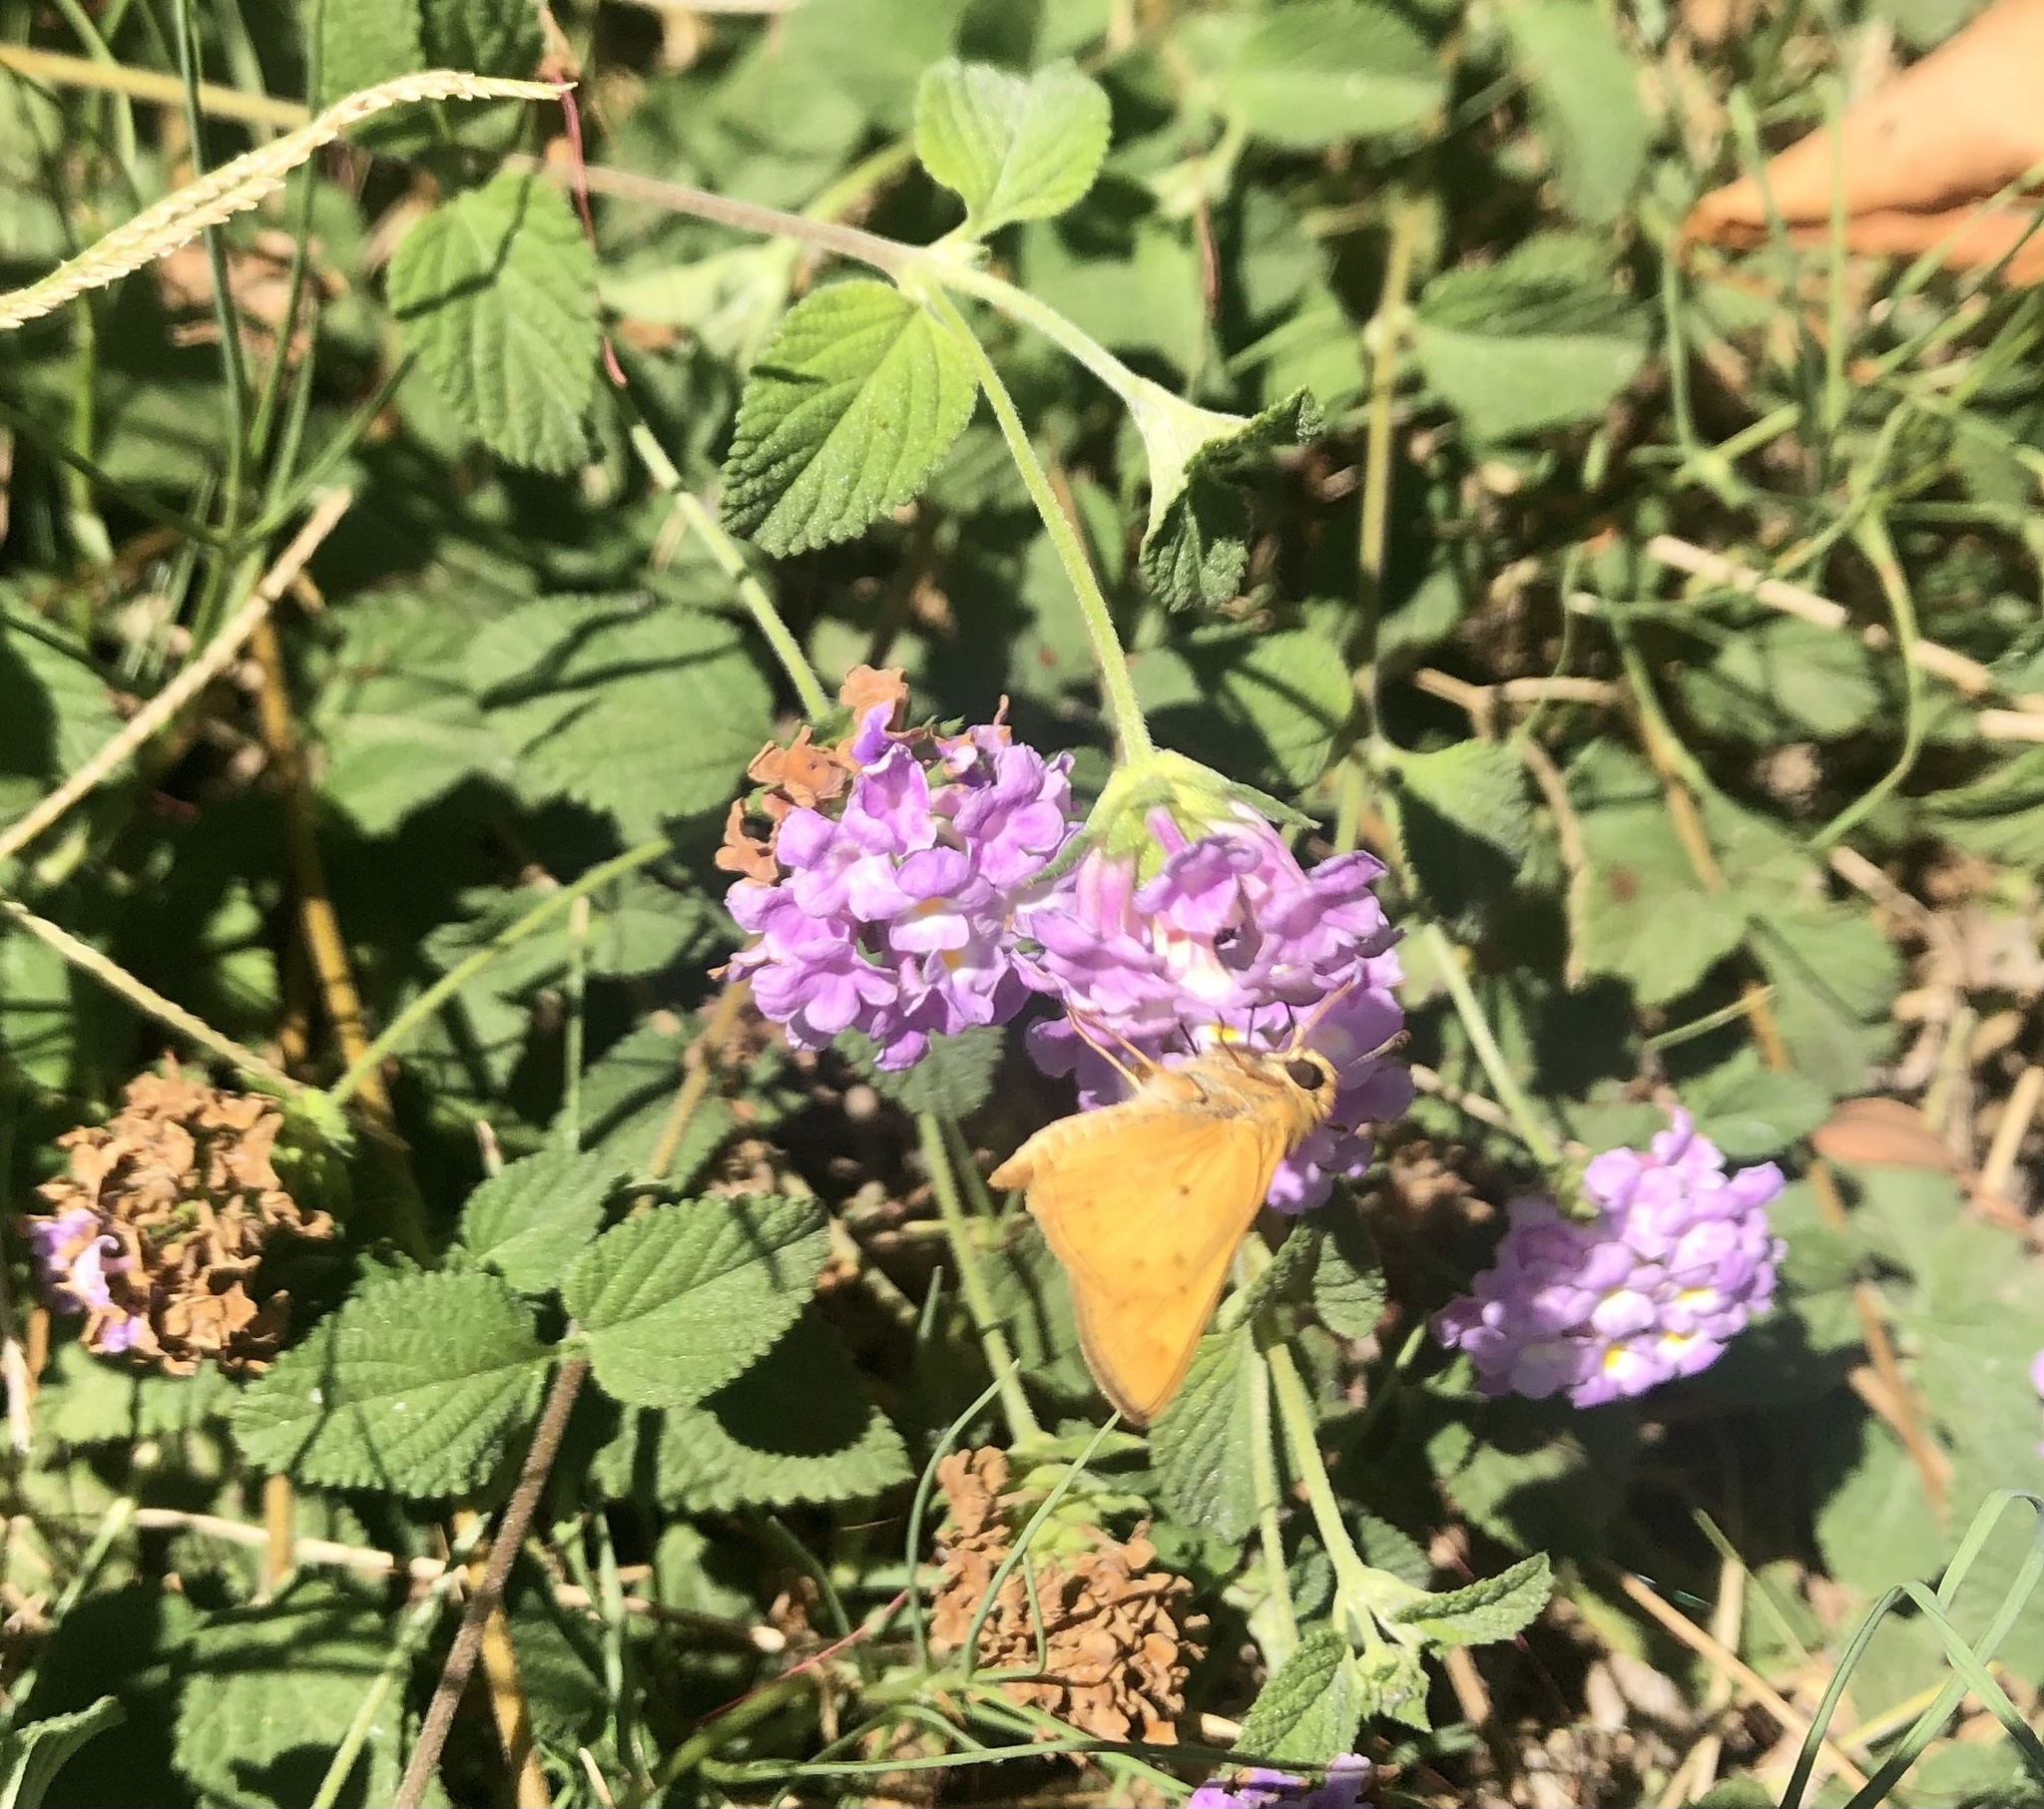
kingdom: Animalia
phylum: Arthropoda
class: Insecta
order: Lepidoptera
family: Hesperiidae
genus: Hylephila
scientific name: Hylephila phyleus
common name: Fiery skipper
